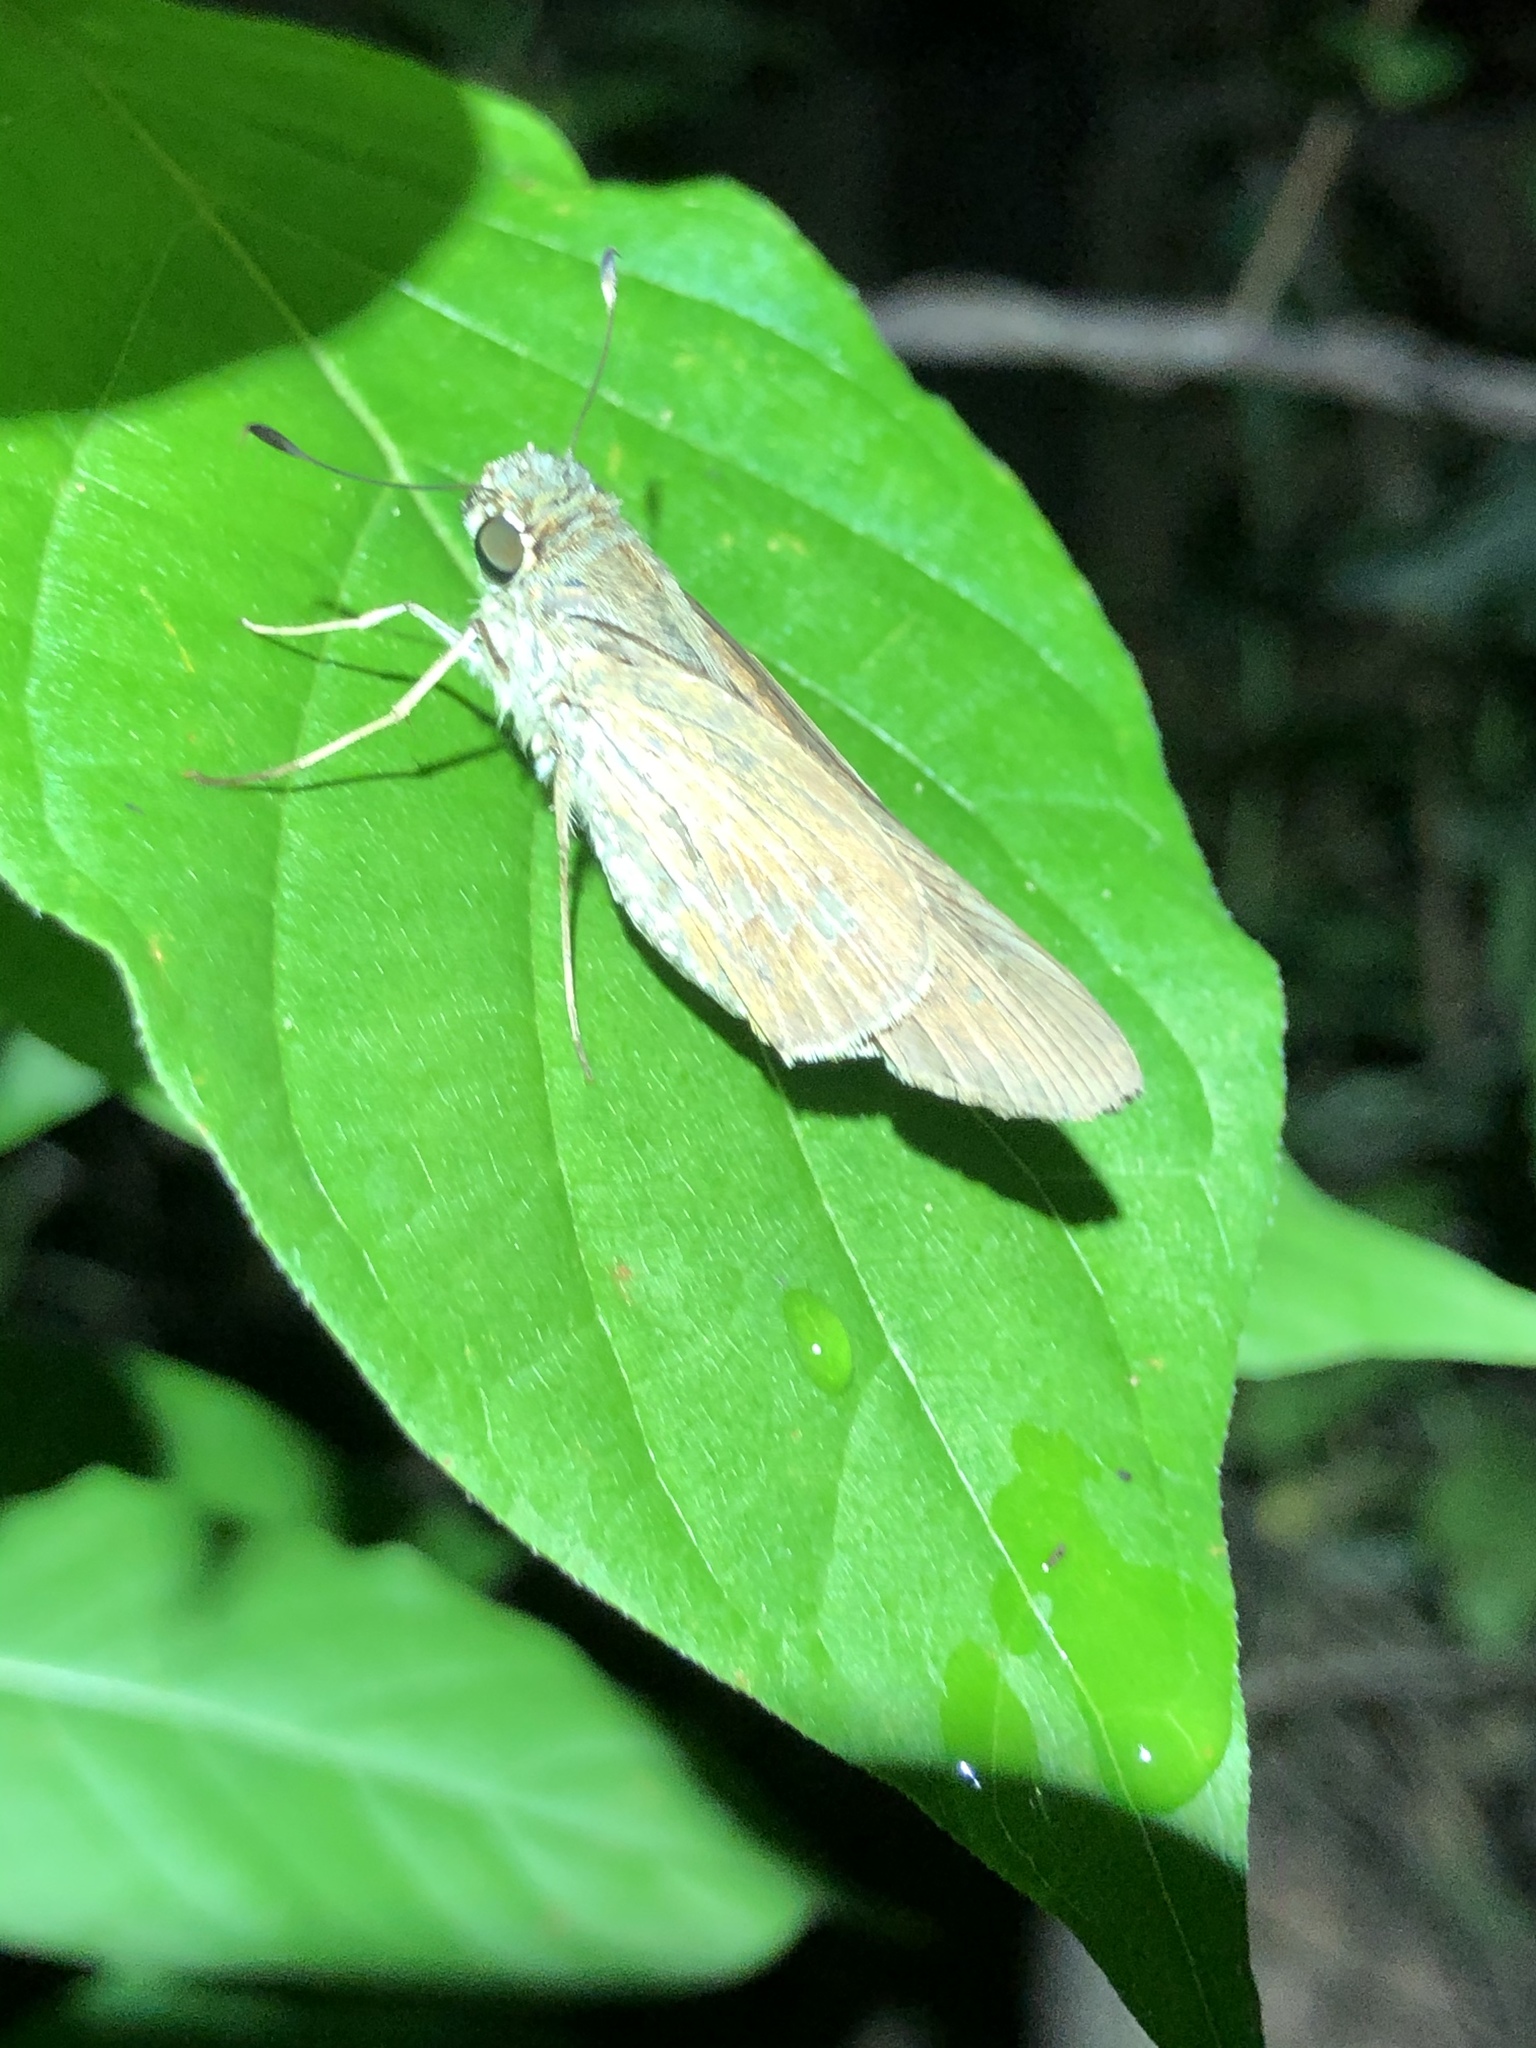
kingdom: Animalia
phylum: Arthropoda
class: Insecta
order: Lepidoptera
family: Hesperiidae
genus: Calpodes
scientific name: Calpodes ethlius
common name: Brazilian skipper
